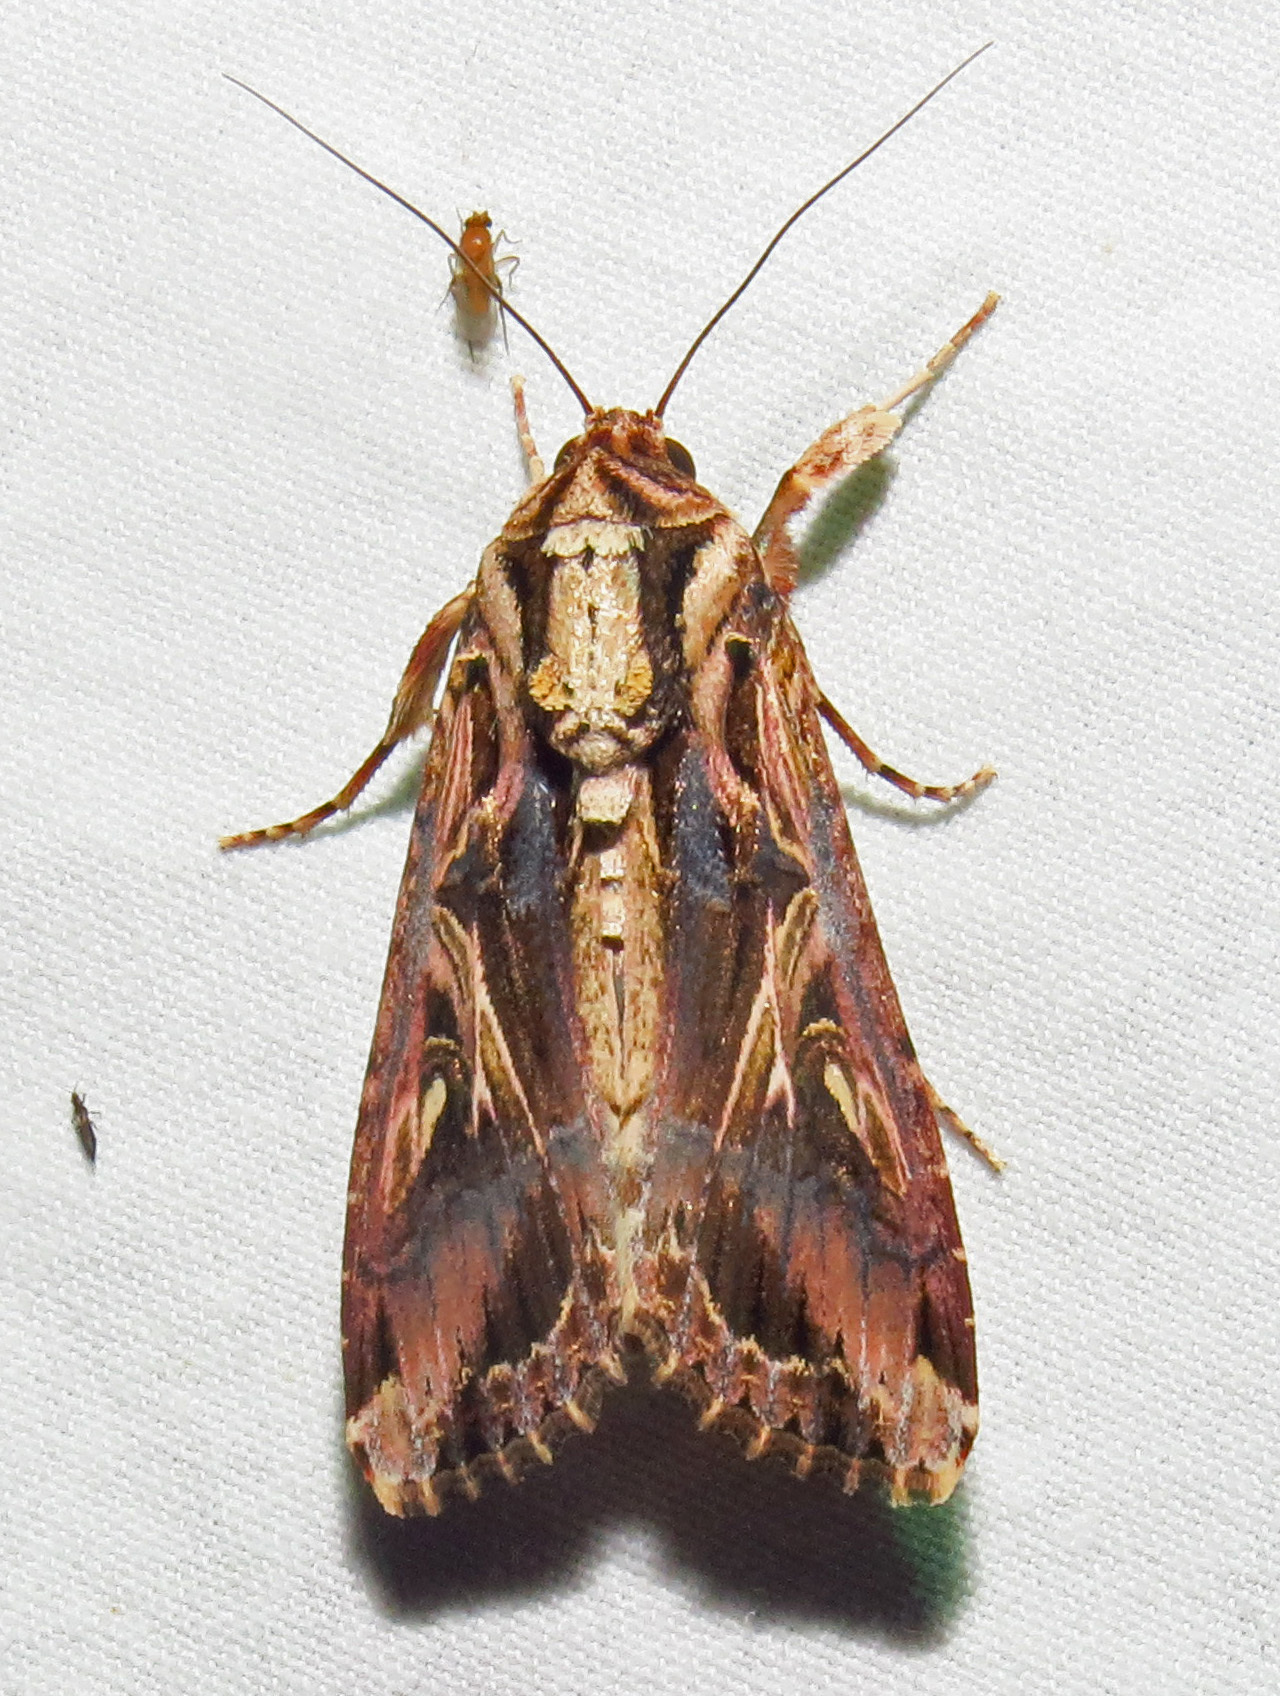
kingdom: Animalia
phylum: Arthropoda
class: Insecta
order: Lepidoptera
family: Noctuidae
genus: Spodoptera
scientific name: Spodoptera dolichos
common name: Sweetpotato armyworm
